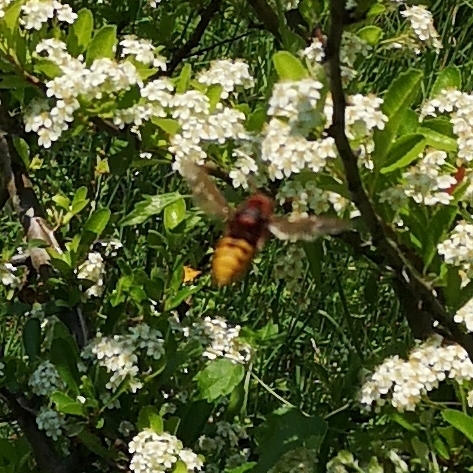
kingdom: Animalia
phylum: Arthropoda
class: Insecta
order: Hymenoptera
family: Vespidae
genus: Vespa
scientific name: Vespa crabro
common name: Hornet
